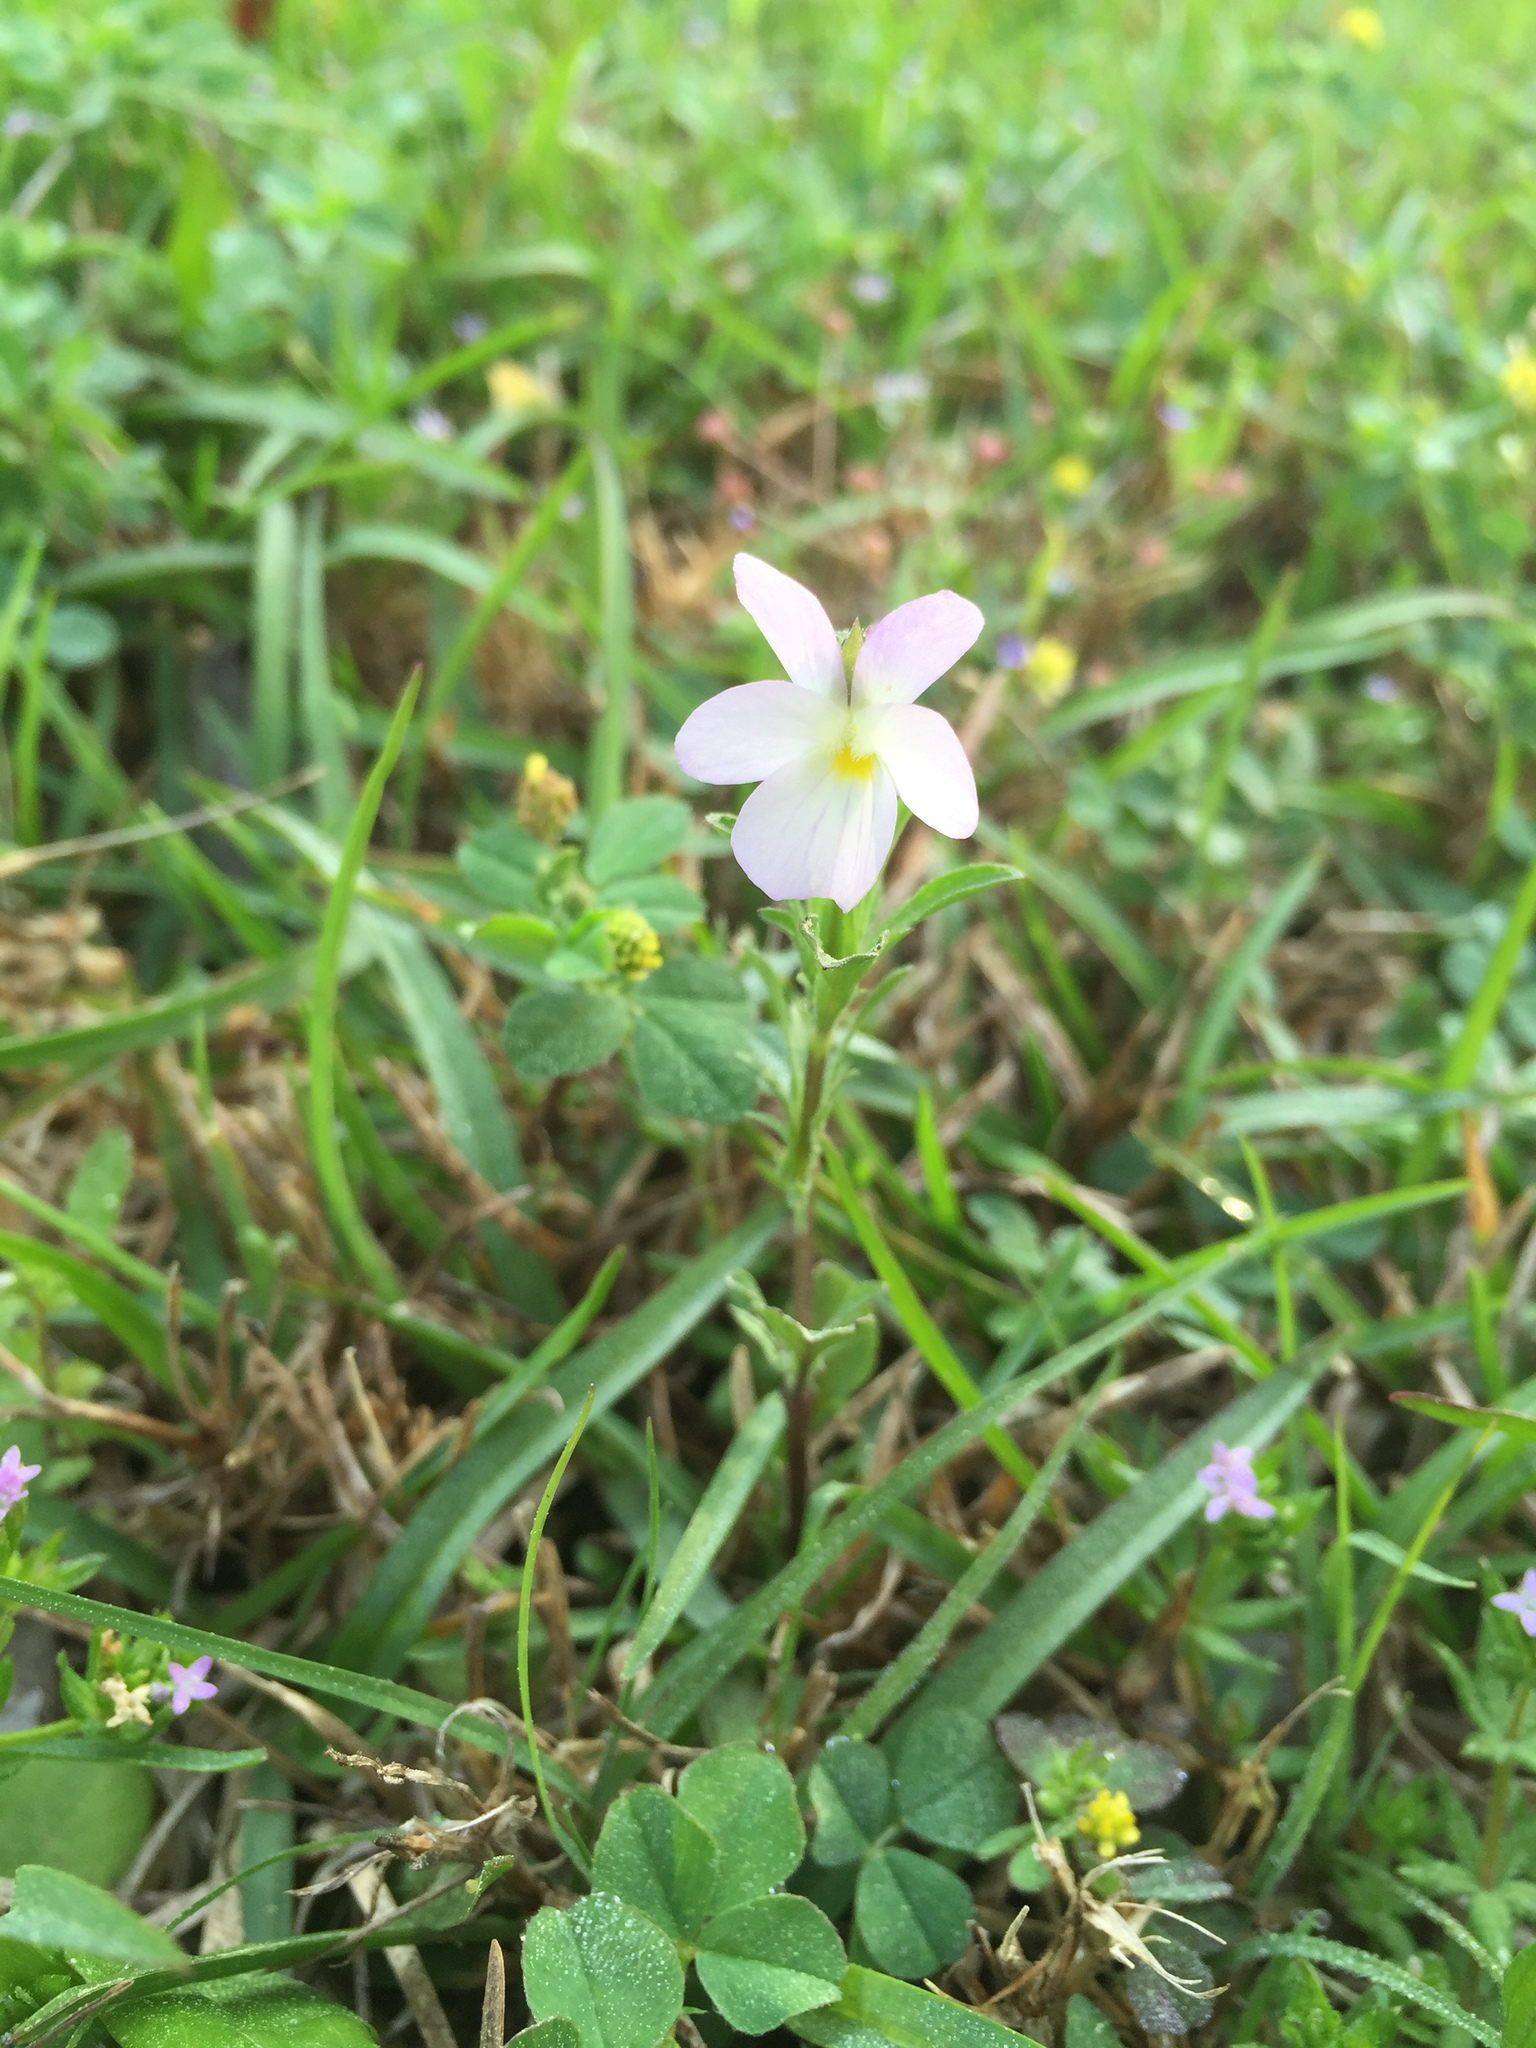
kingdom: Plantae
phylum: Tracheophyta
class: Magnoliopsida
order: Malpighiales
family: Violaceae
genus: Viola
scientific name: Viola rafinesquei
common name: American field pansy
